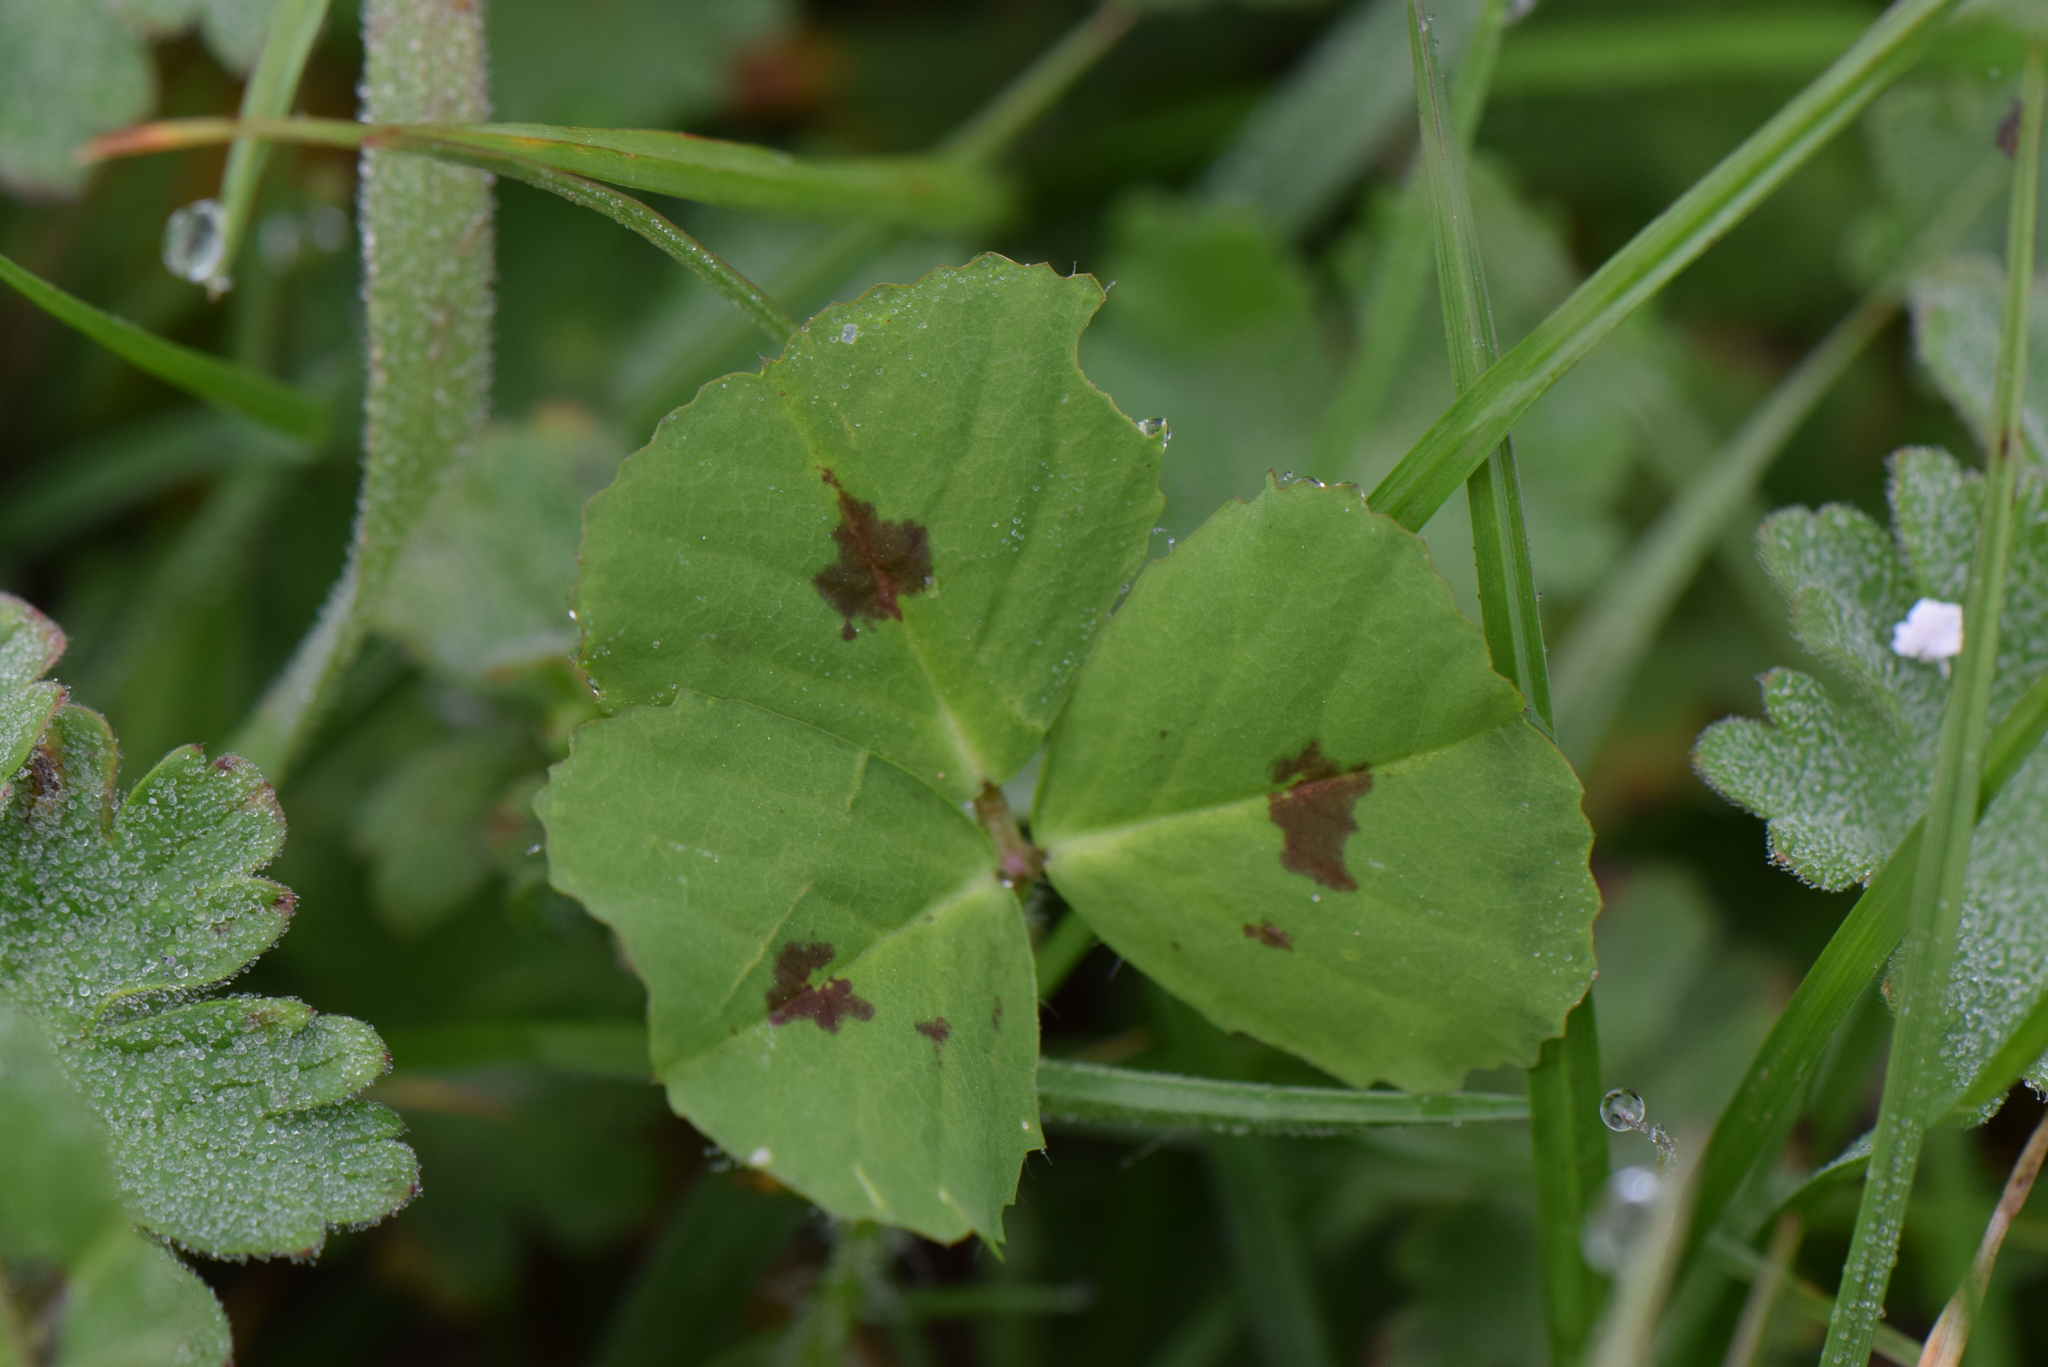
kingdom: Plantae
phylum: Tracheophyta
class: Magnoliopsida
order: Fabales
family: Fabaceae
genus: Medicago
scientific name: Medicago arabica
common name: Spotted medick
